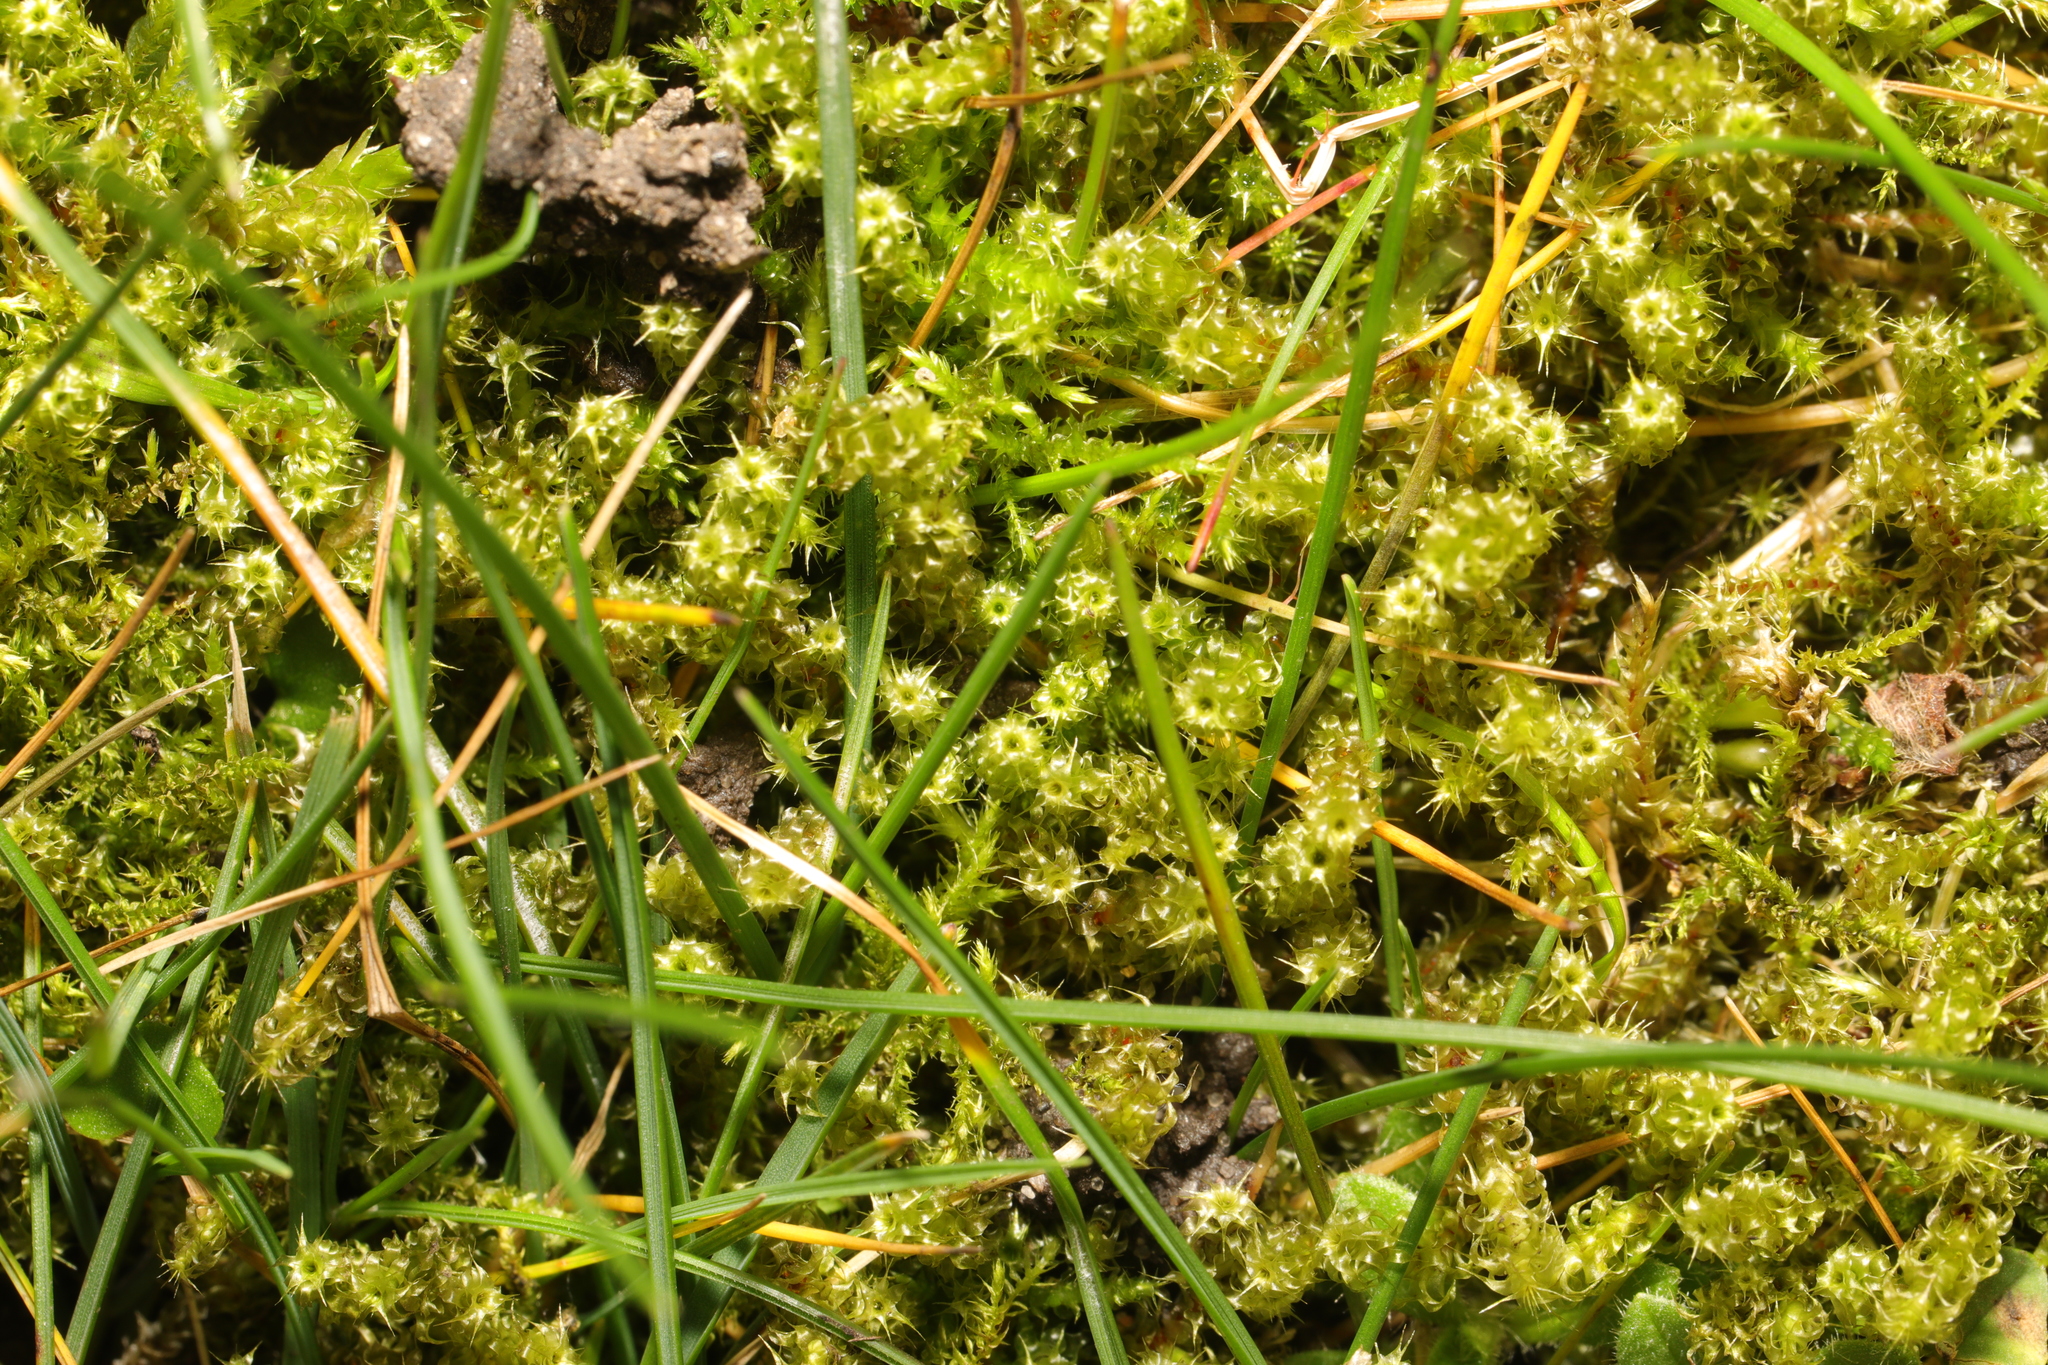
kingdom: Plantae
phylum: Bryophyta
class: Bryopsida
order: Hypnales
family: Hylocomiaceae
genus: Rhytidiadelphus
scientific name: Rhytidiadelphus squarrosus
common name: Springy turf-moss
